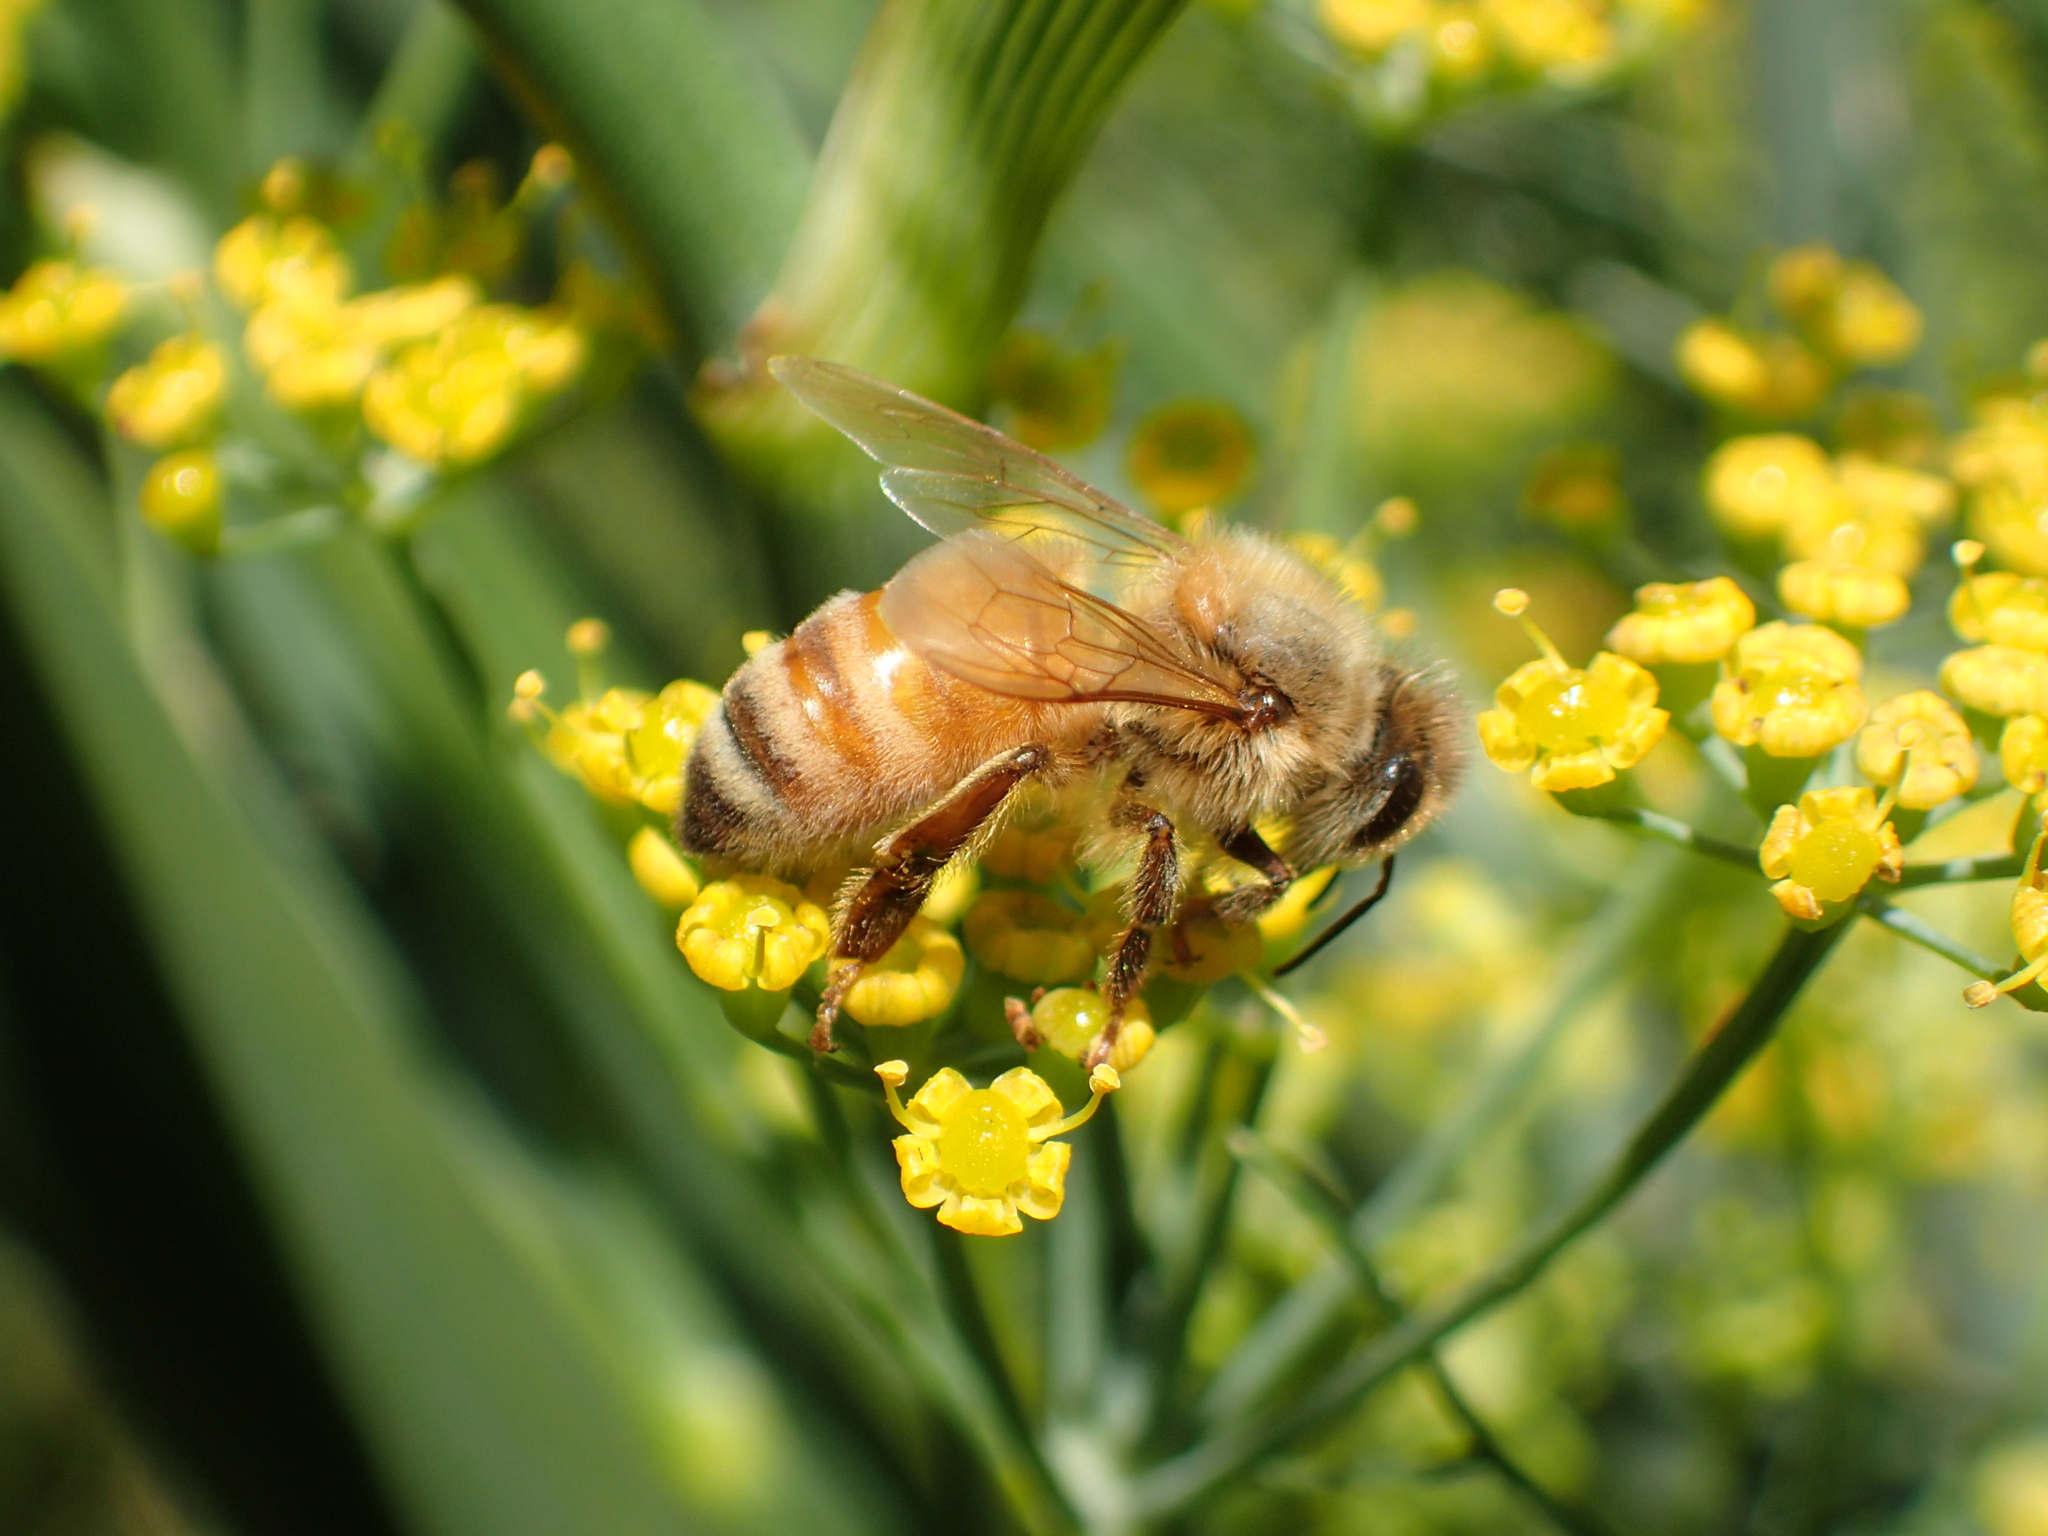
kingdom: Animalia
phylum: Arthropoda
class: Insecta
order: Hymenoptera
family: Apidae
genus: Apis
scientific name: Apis mellifera
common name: Honey bee
